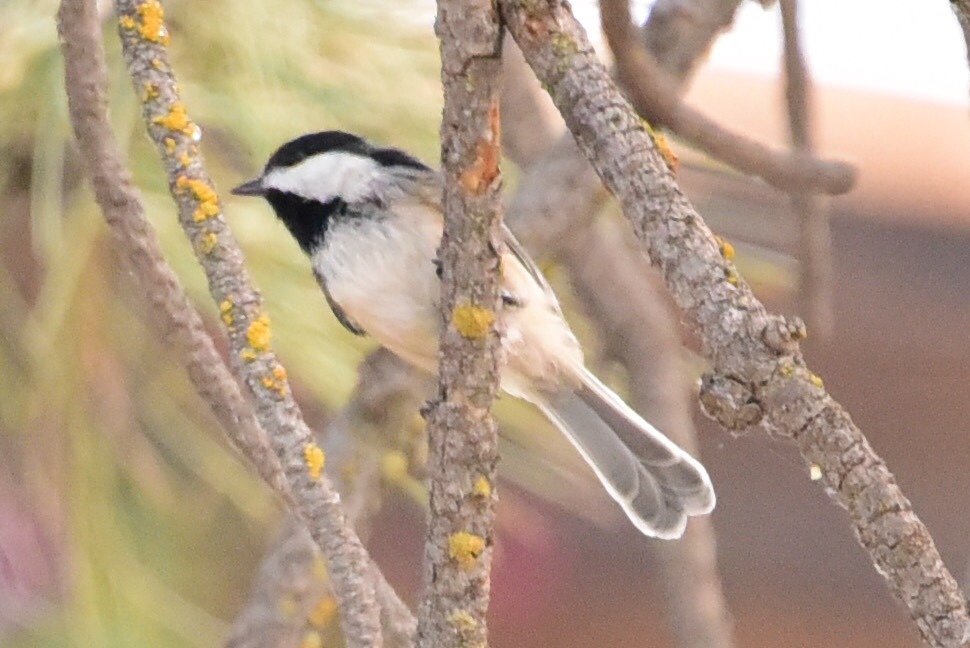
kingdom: Animalia
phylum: Chordata
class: Aves
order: Passeriformes
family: Paridae
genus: Poecile
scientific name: Poecile atricapillus
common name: Black-capped chickadee
